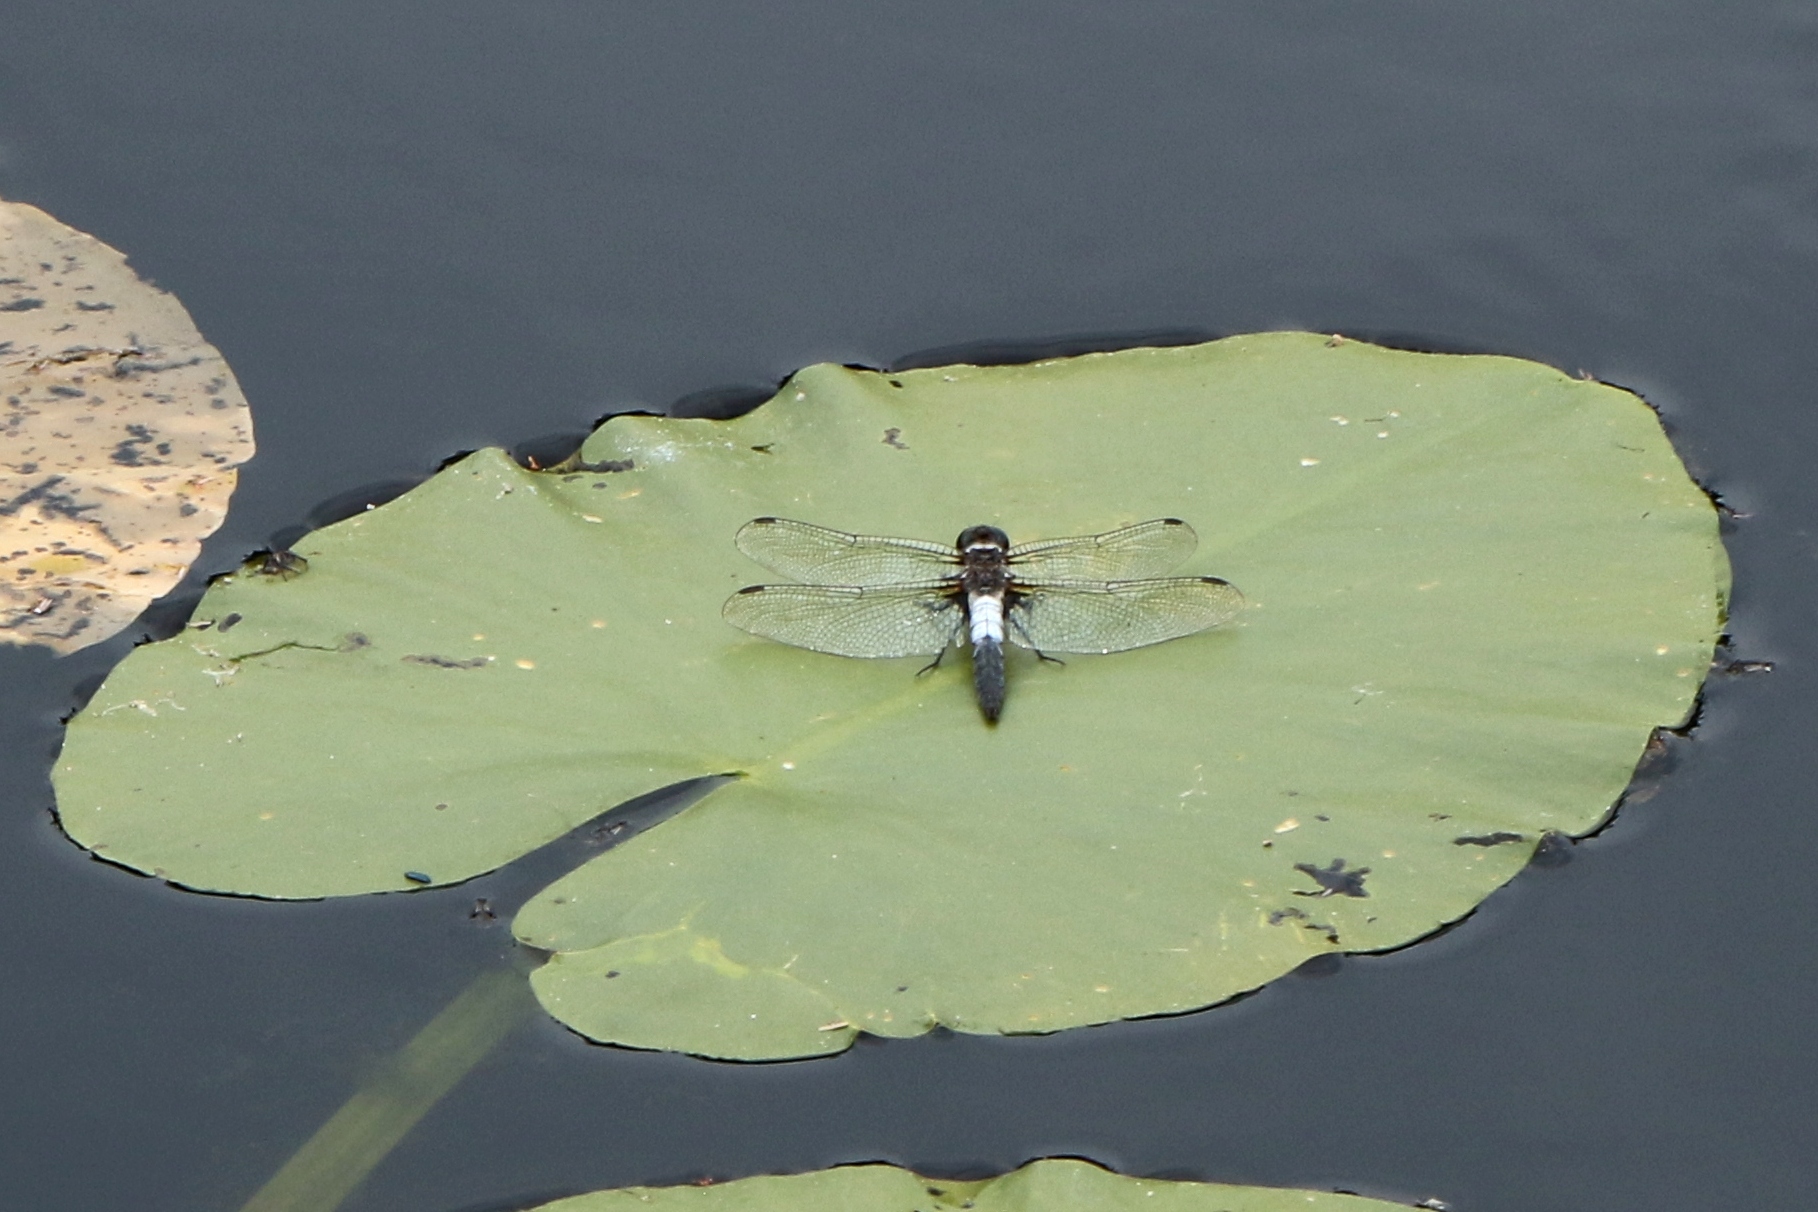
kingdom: Animalia
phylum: Arthropoda
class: Insecta
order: Odonata
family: Libellulidae
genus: Ladona
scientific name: Ladona julia
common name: Chalk-fronted corporal
